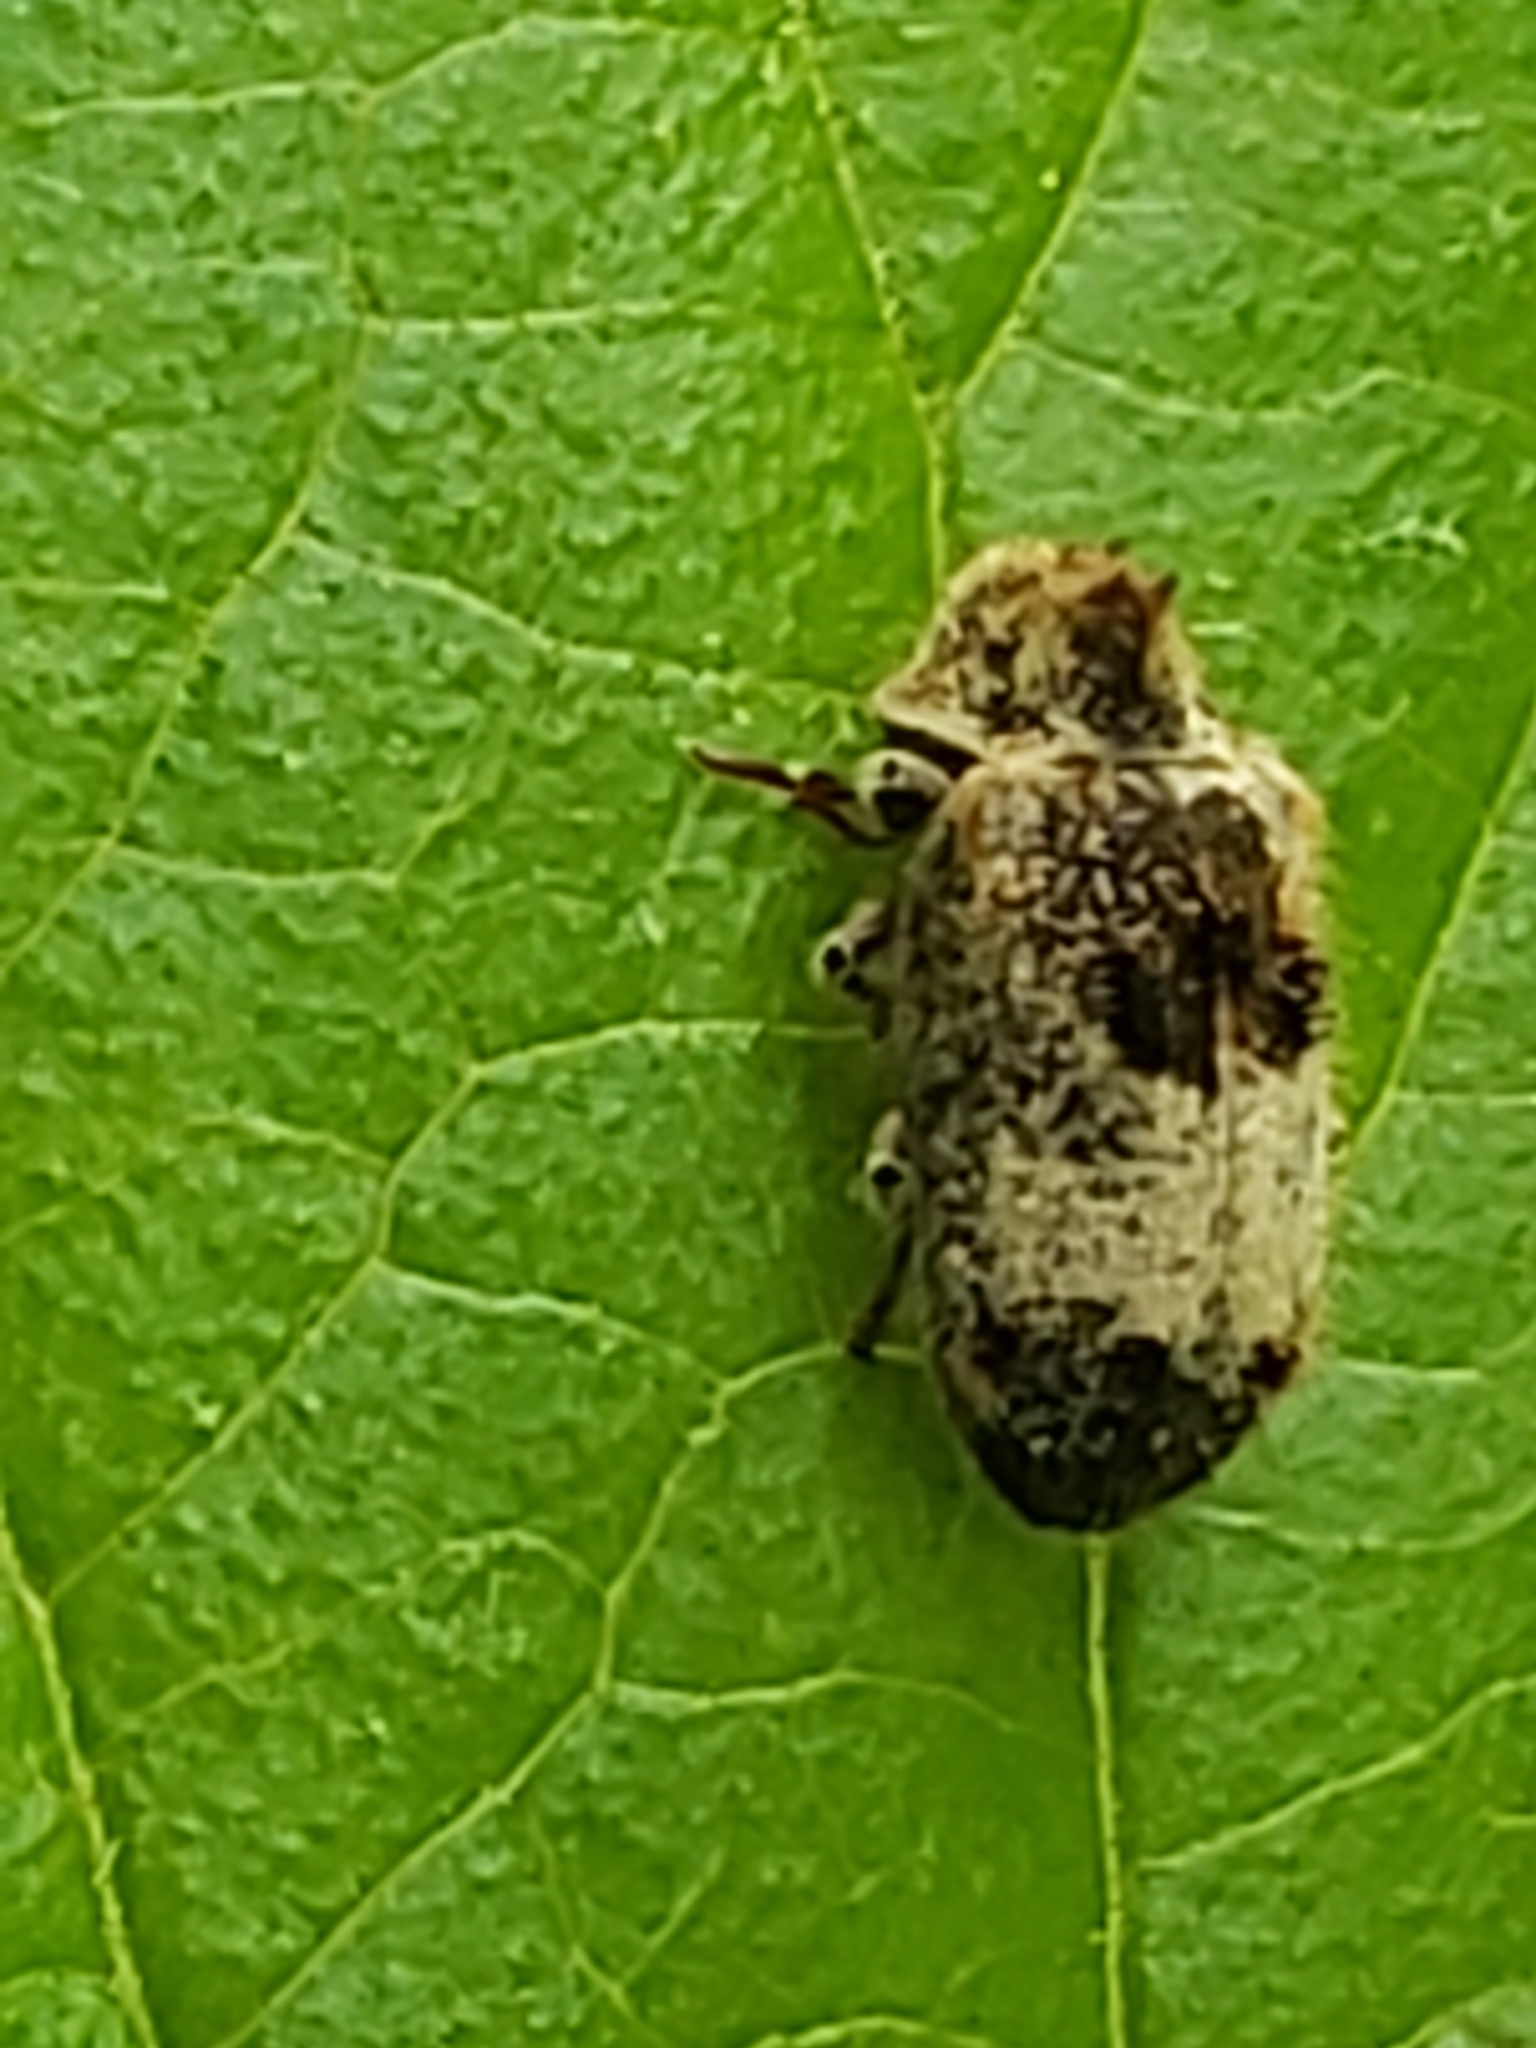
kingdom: Animalia
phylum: Arthropoda
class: Insecta
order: Coleoptera
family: Anobiidae
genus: Trichodesma
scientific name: Trichodesma gibbosa
